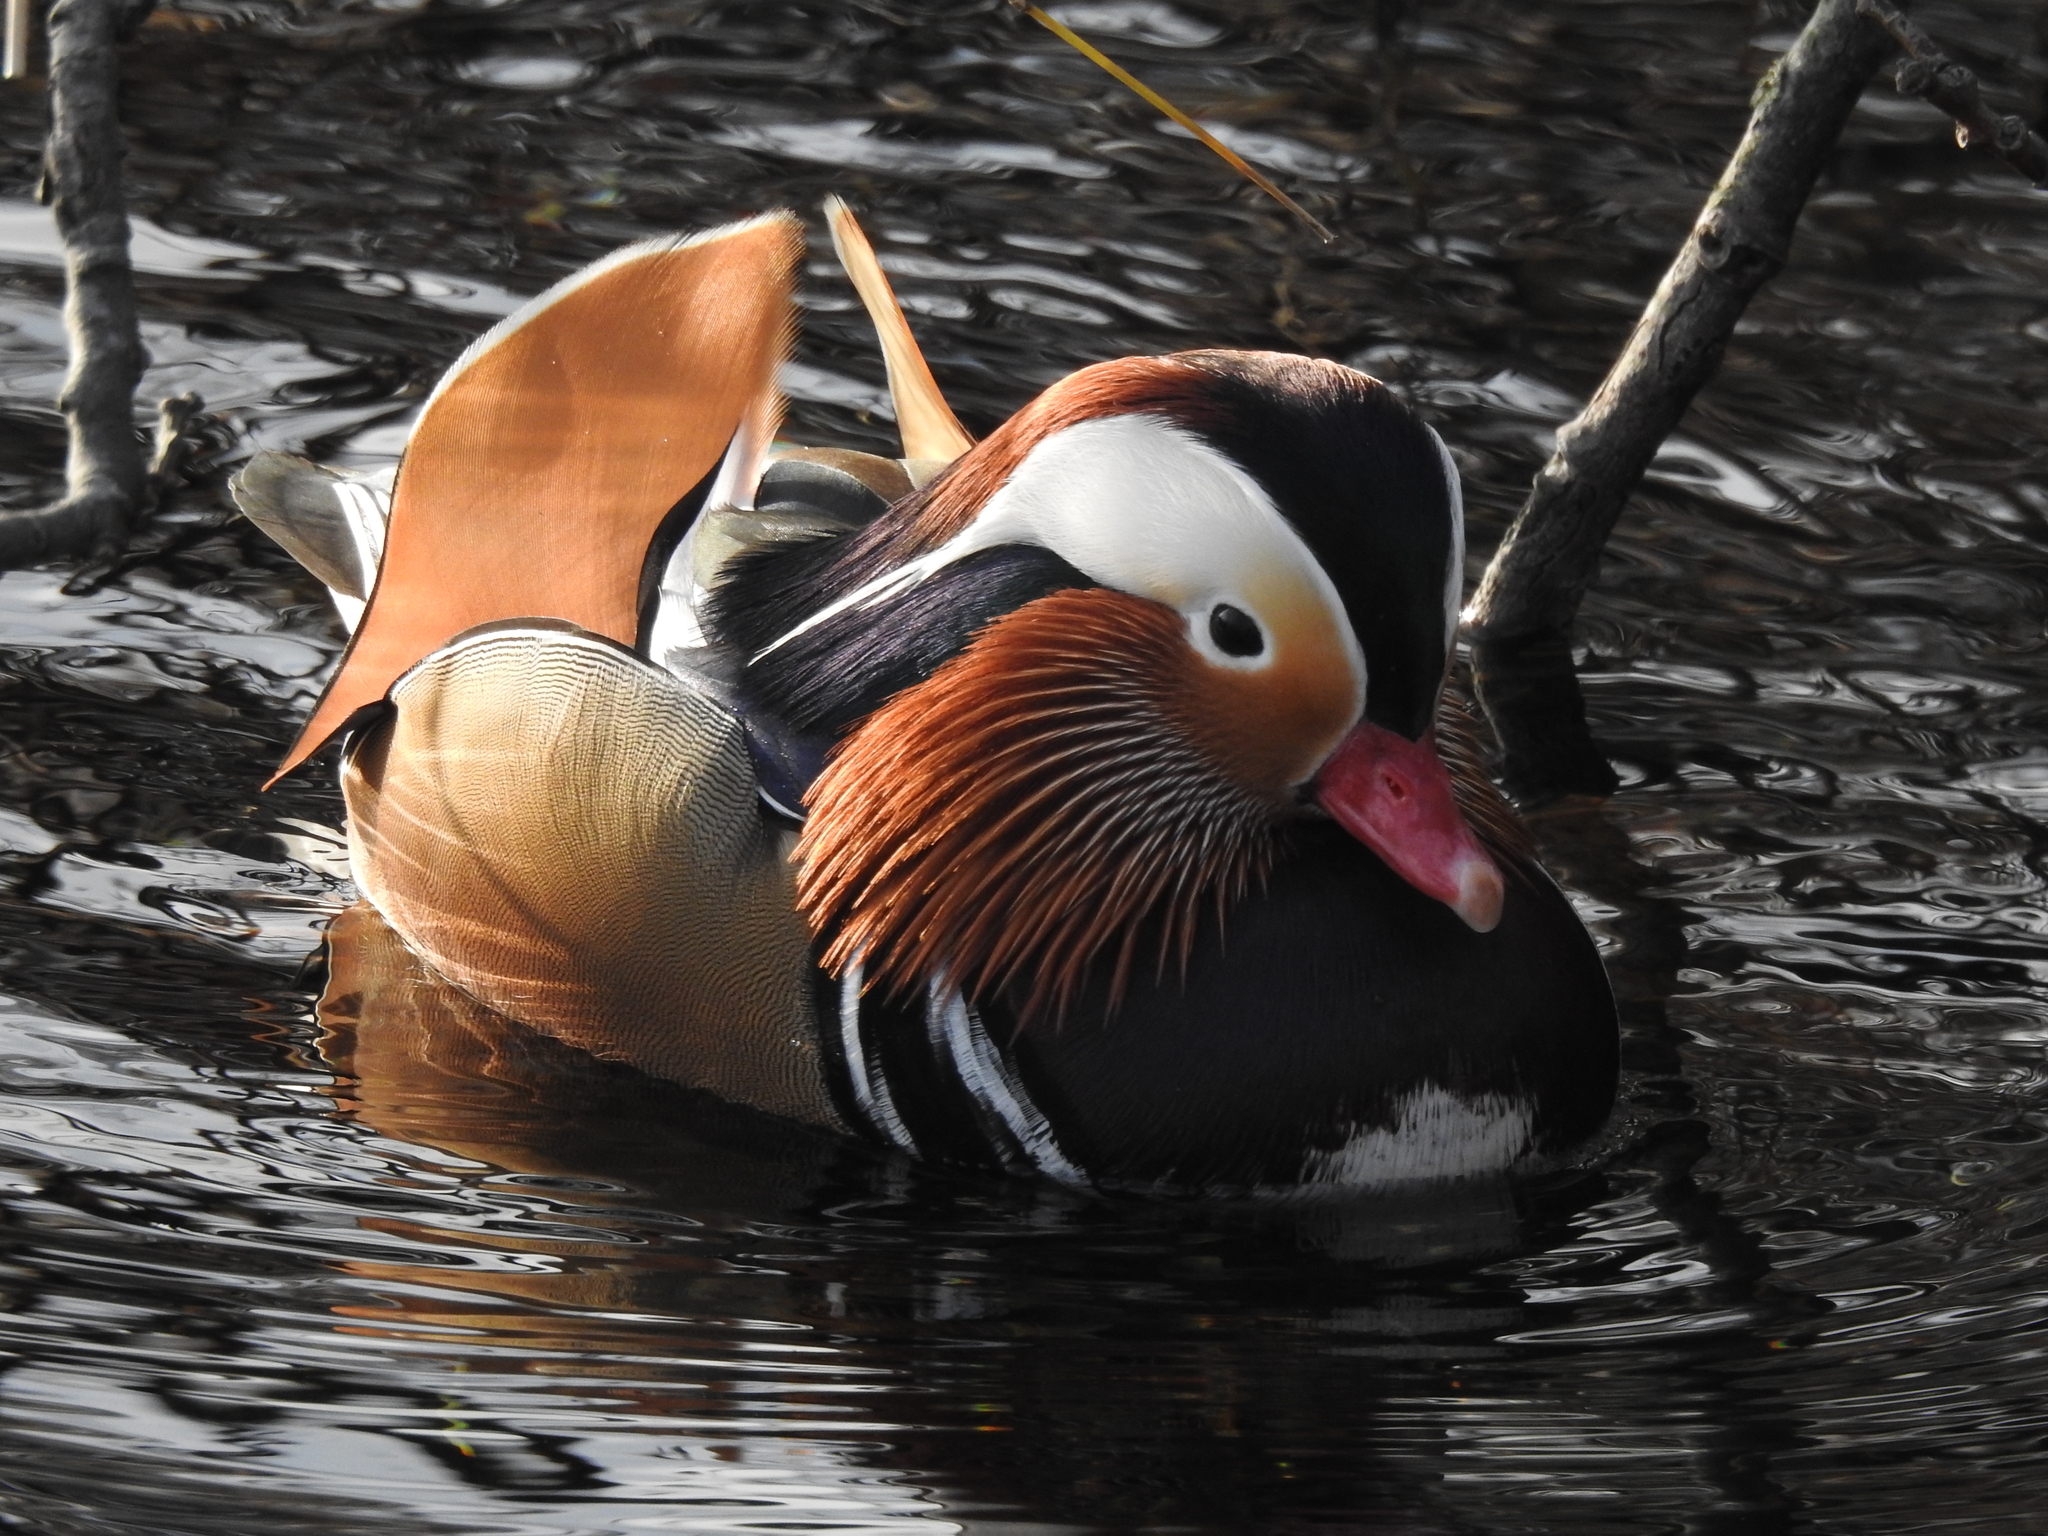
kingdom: Animalia
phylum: Chordata
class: Aves
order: Anseriformes
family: Anatidae
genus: Aix
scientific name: Aix galericulata
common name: Mandarin duck
